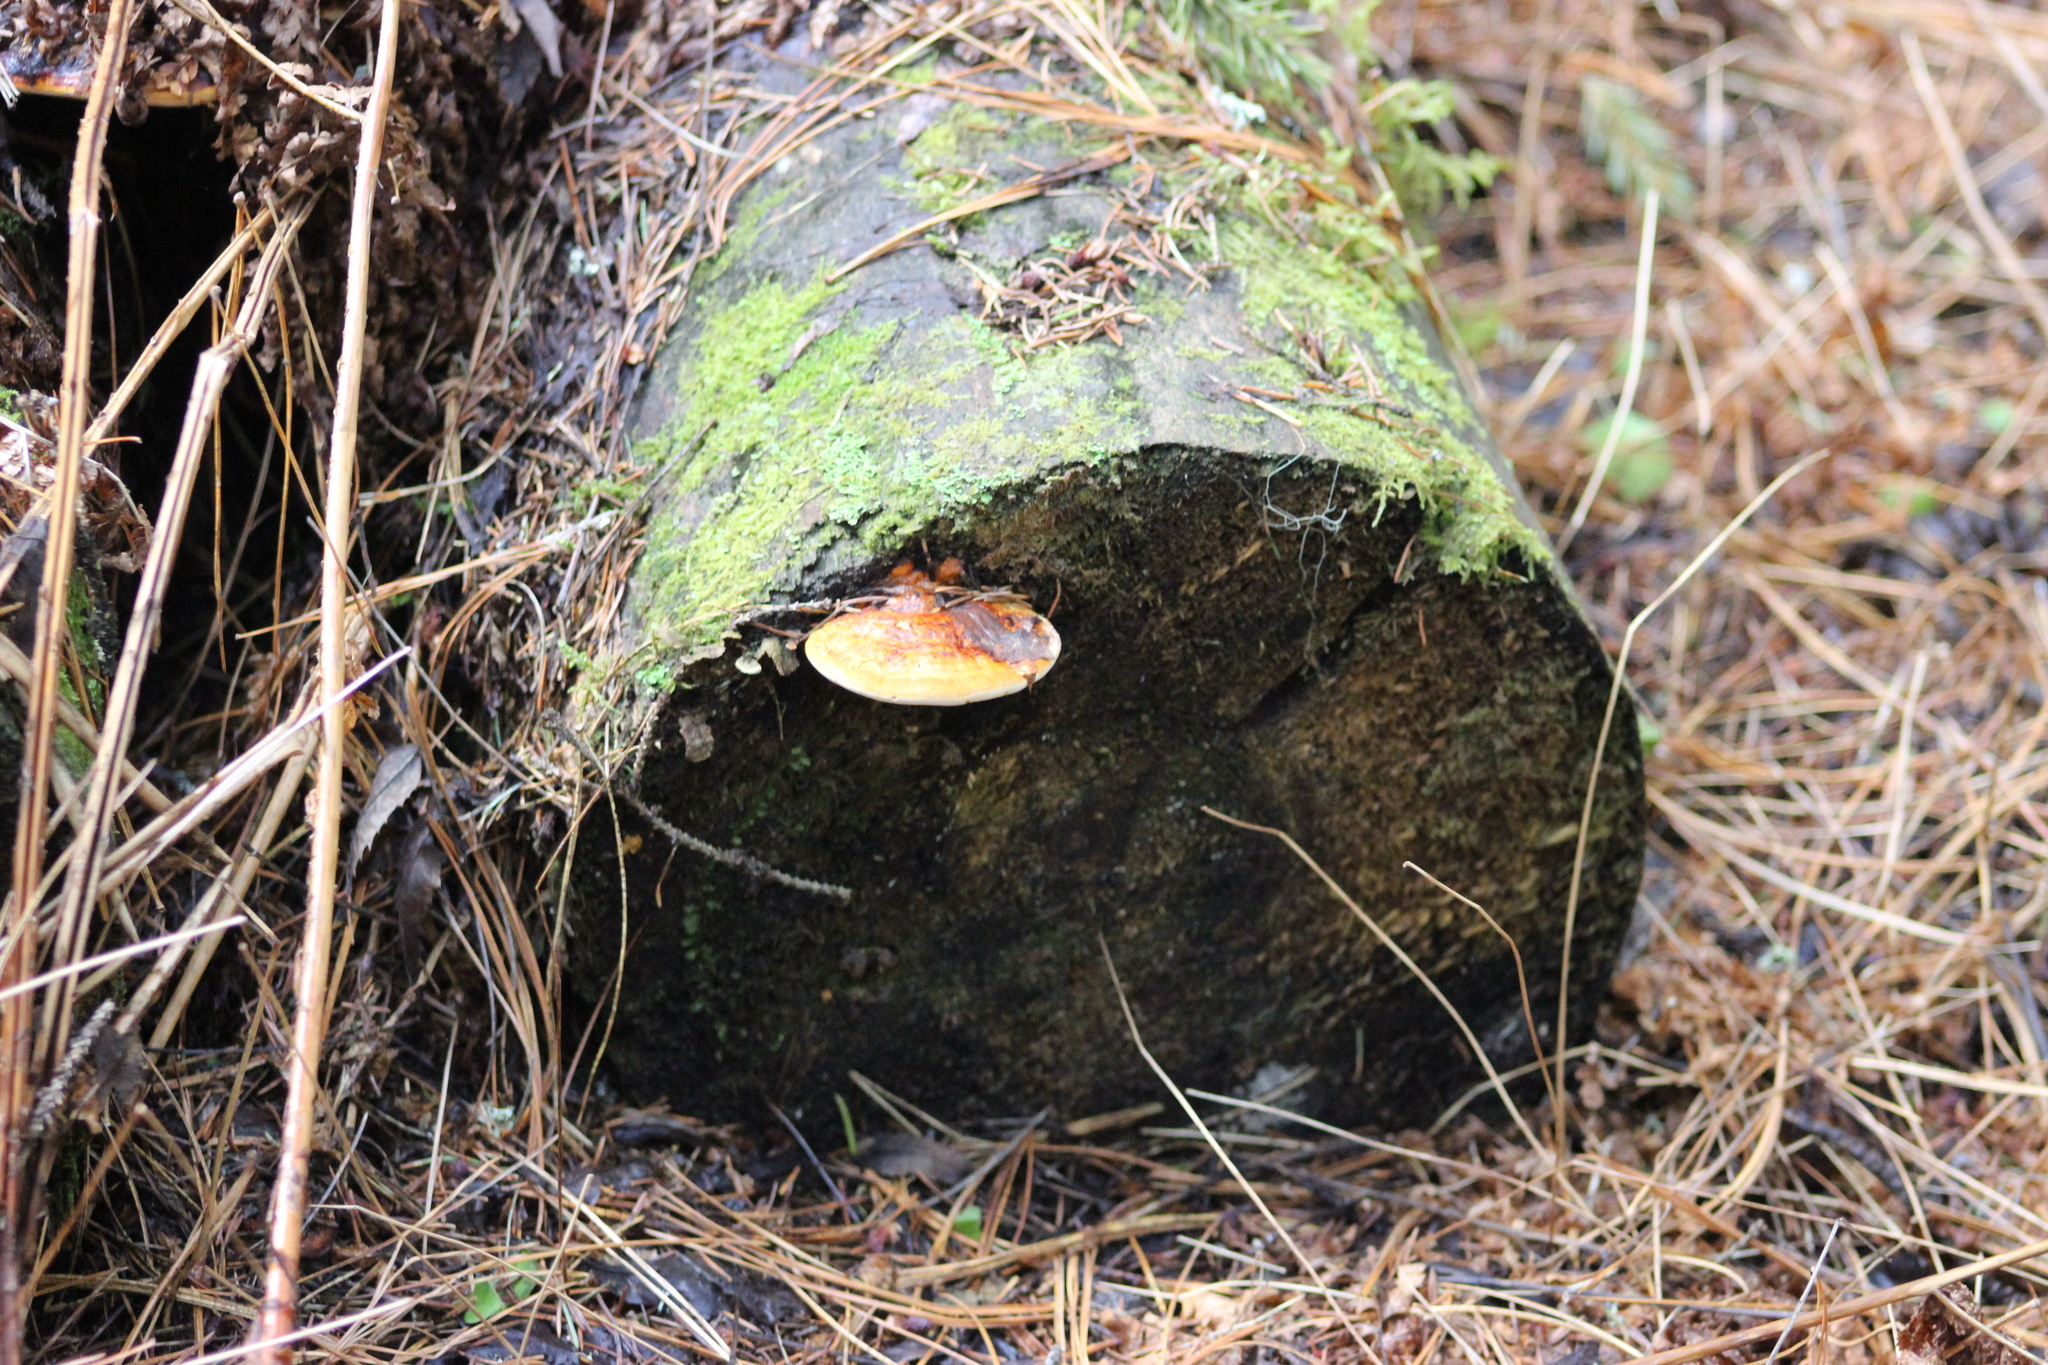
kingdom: Fungi
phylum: Basidiomycota
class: Agaricomycetes
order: Polyporales
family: Fomitopsidaceae
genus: Fomitopsis
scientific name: Fomitopsis pinicola
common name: Red-belted bracket
